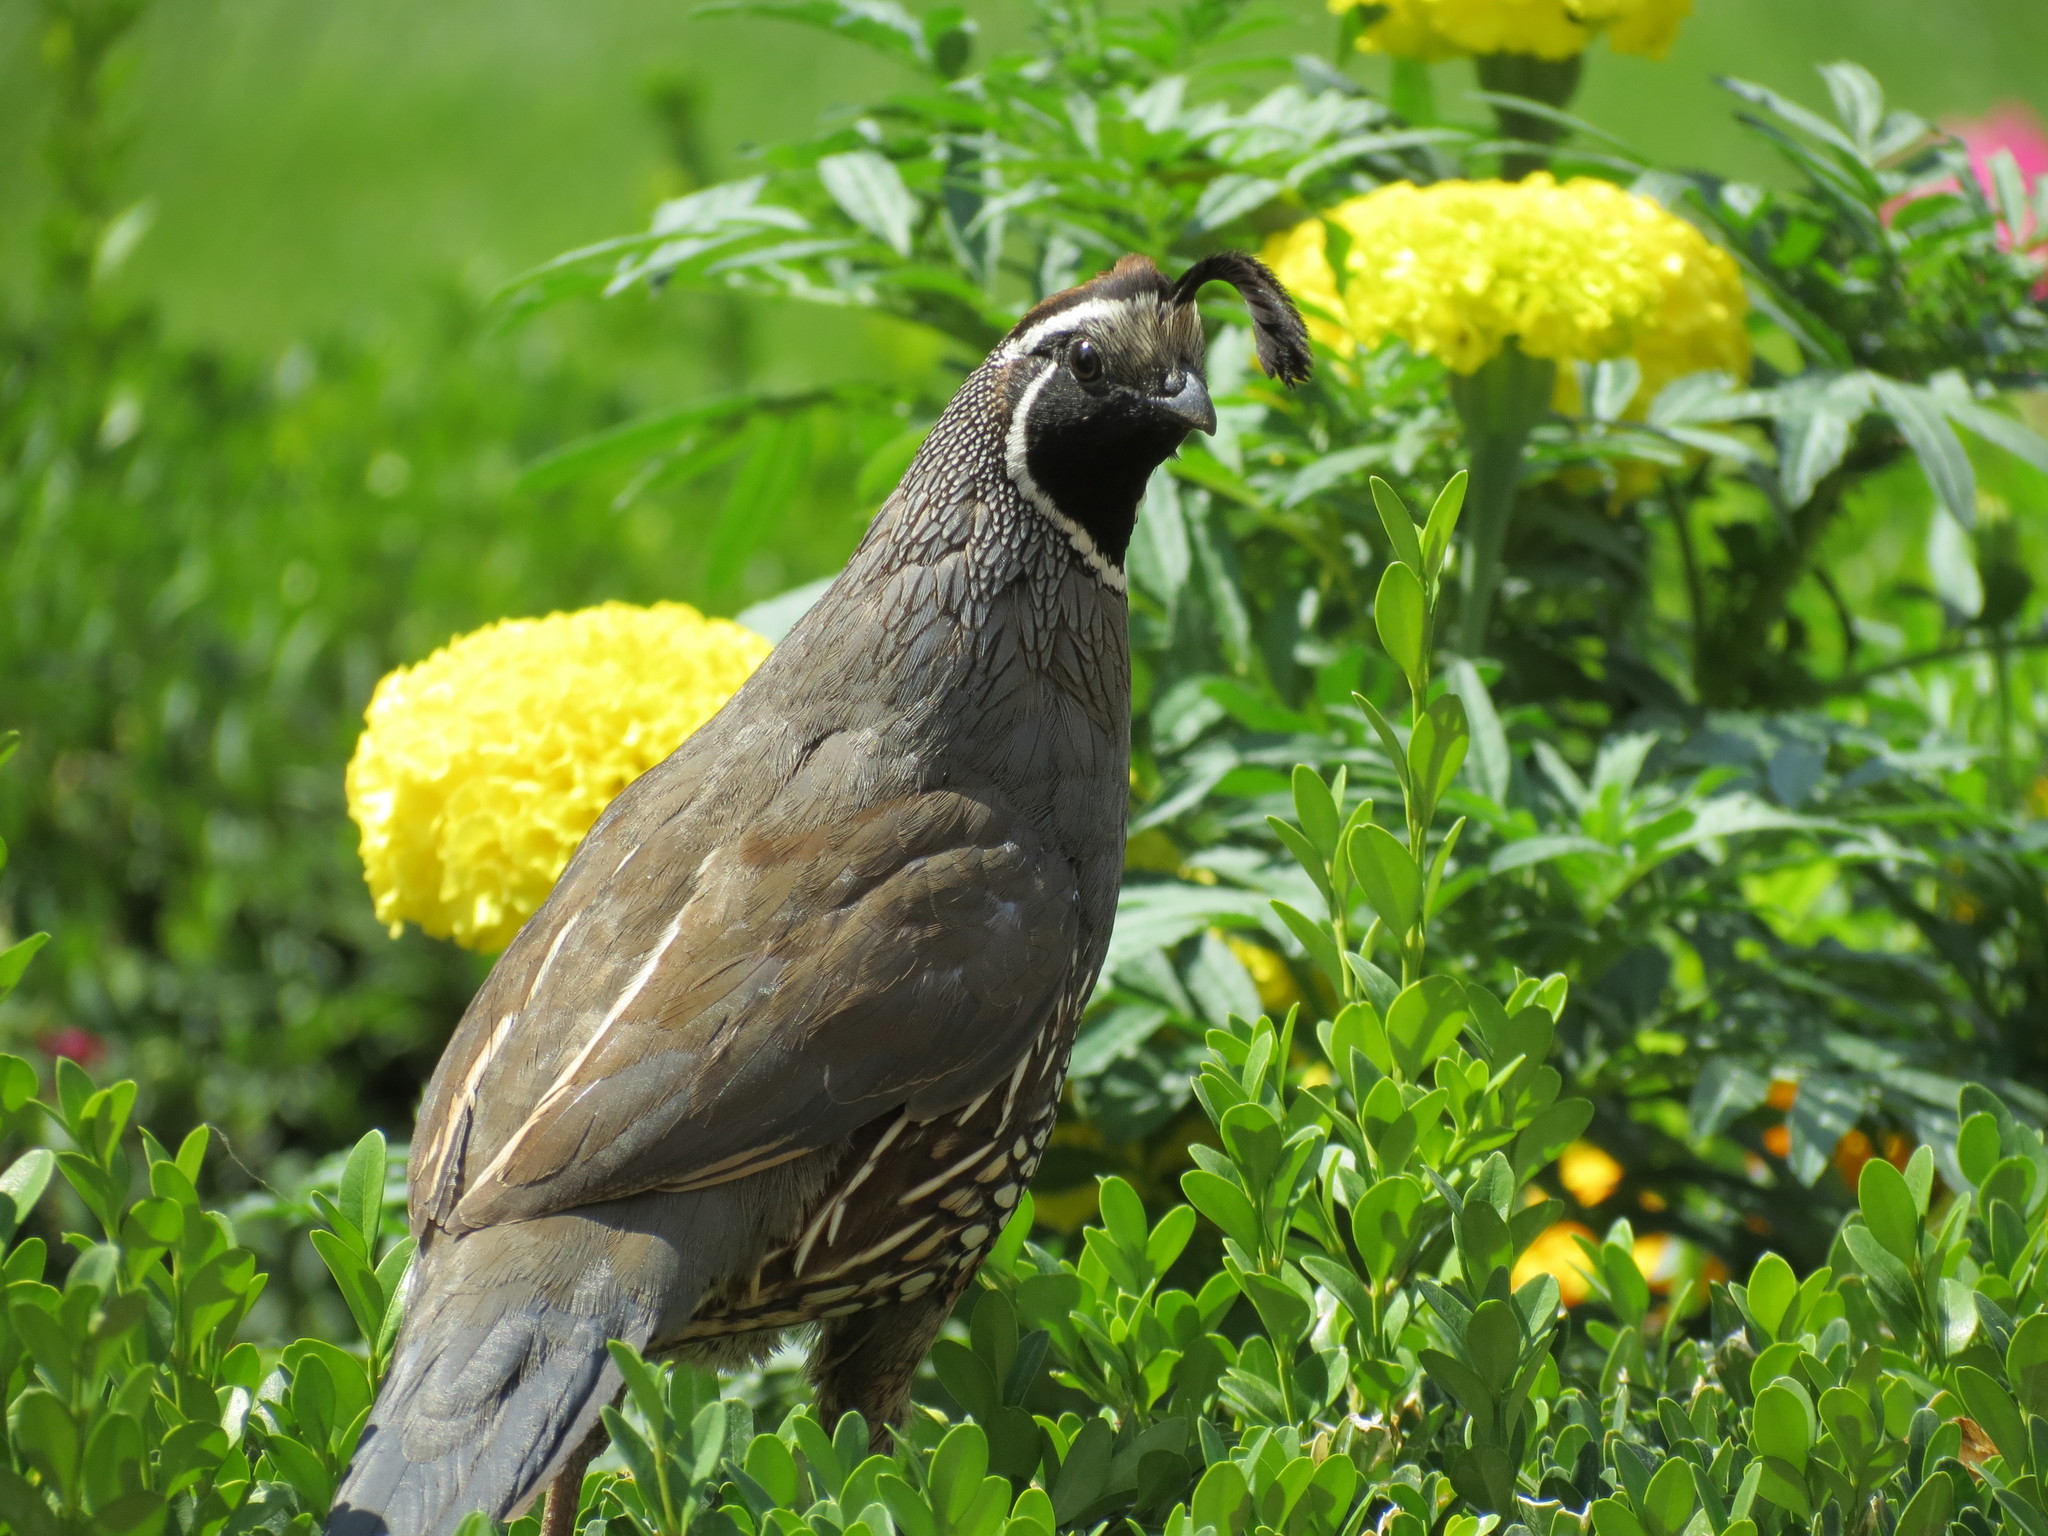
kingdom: Animalia
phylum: Chordata
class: Aves
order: Galliformes
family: Odontophoridae
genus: Callipepla
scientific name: Callipepla californica
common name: California quail
